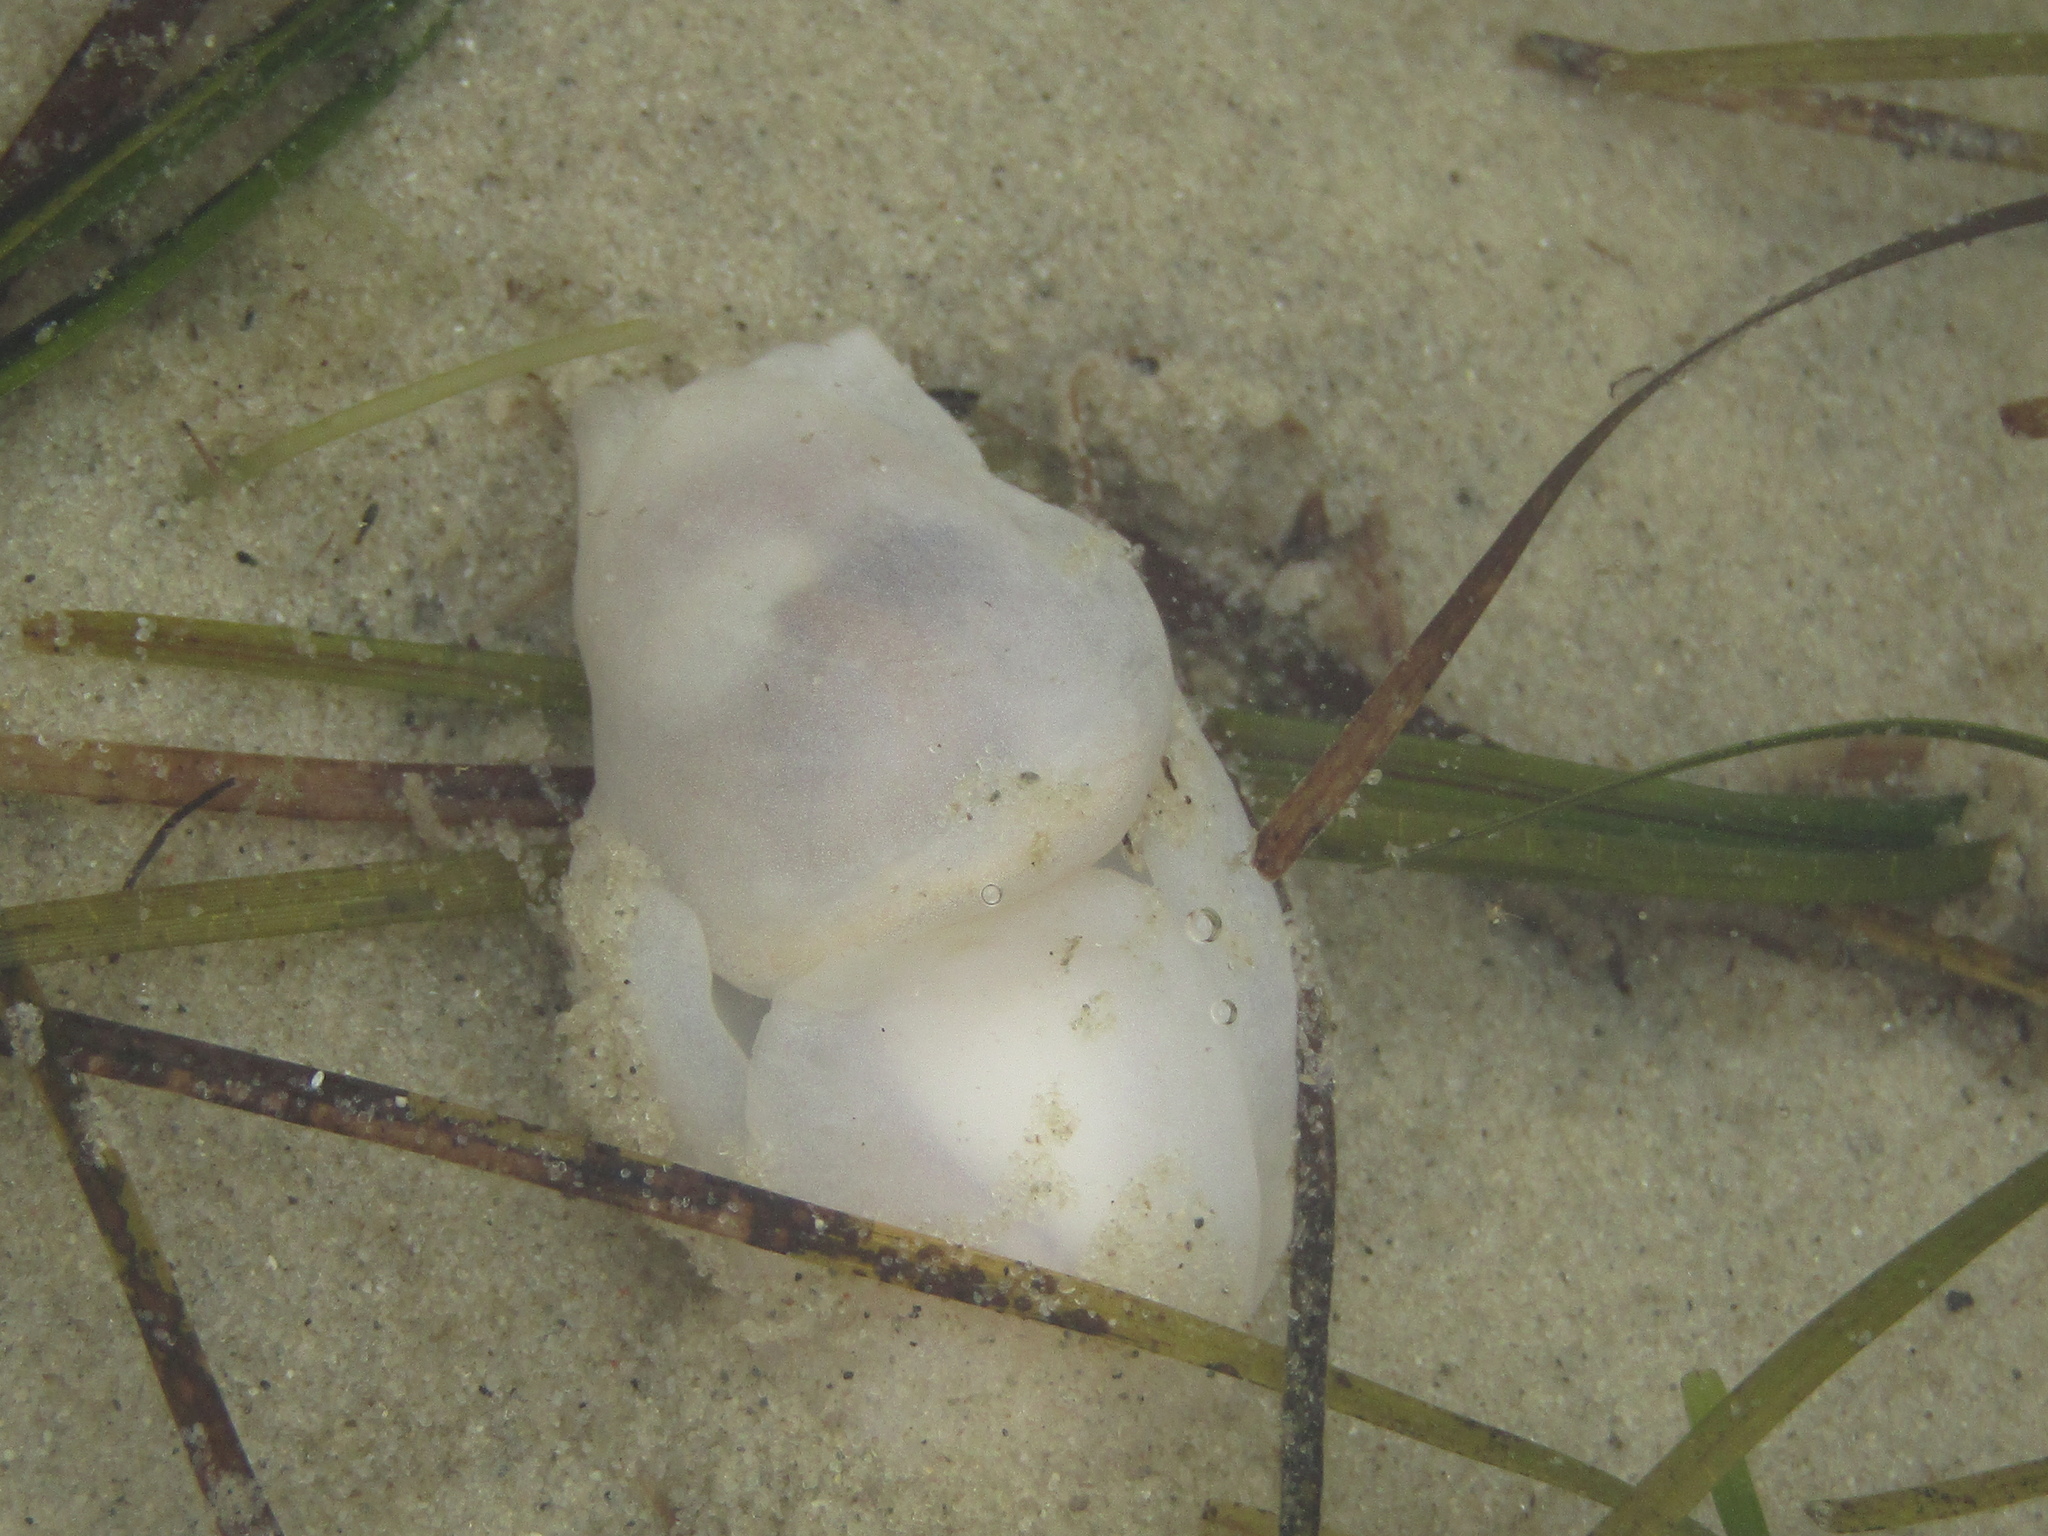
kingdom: Animalia
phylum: Mollusca
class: Gastropoda
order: Cephalaspidea
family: Philinidae
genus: Philine
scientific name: Philine angasi
